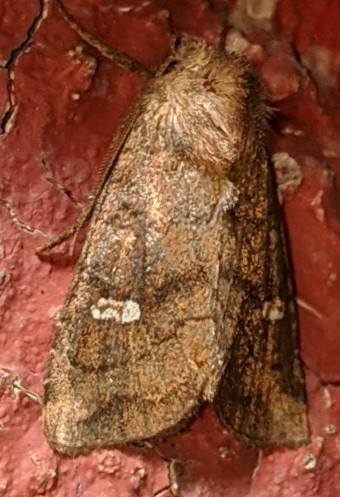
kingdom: Animalia
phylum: Arthropoda
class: Insecta
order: Lepidoptera
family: Noctuidae
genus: Tricholita
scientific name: Tricholita signata
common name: Signate quaker
